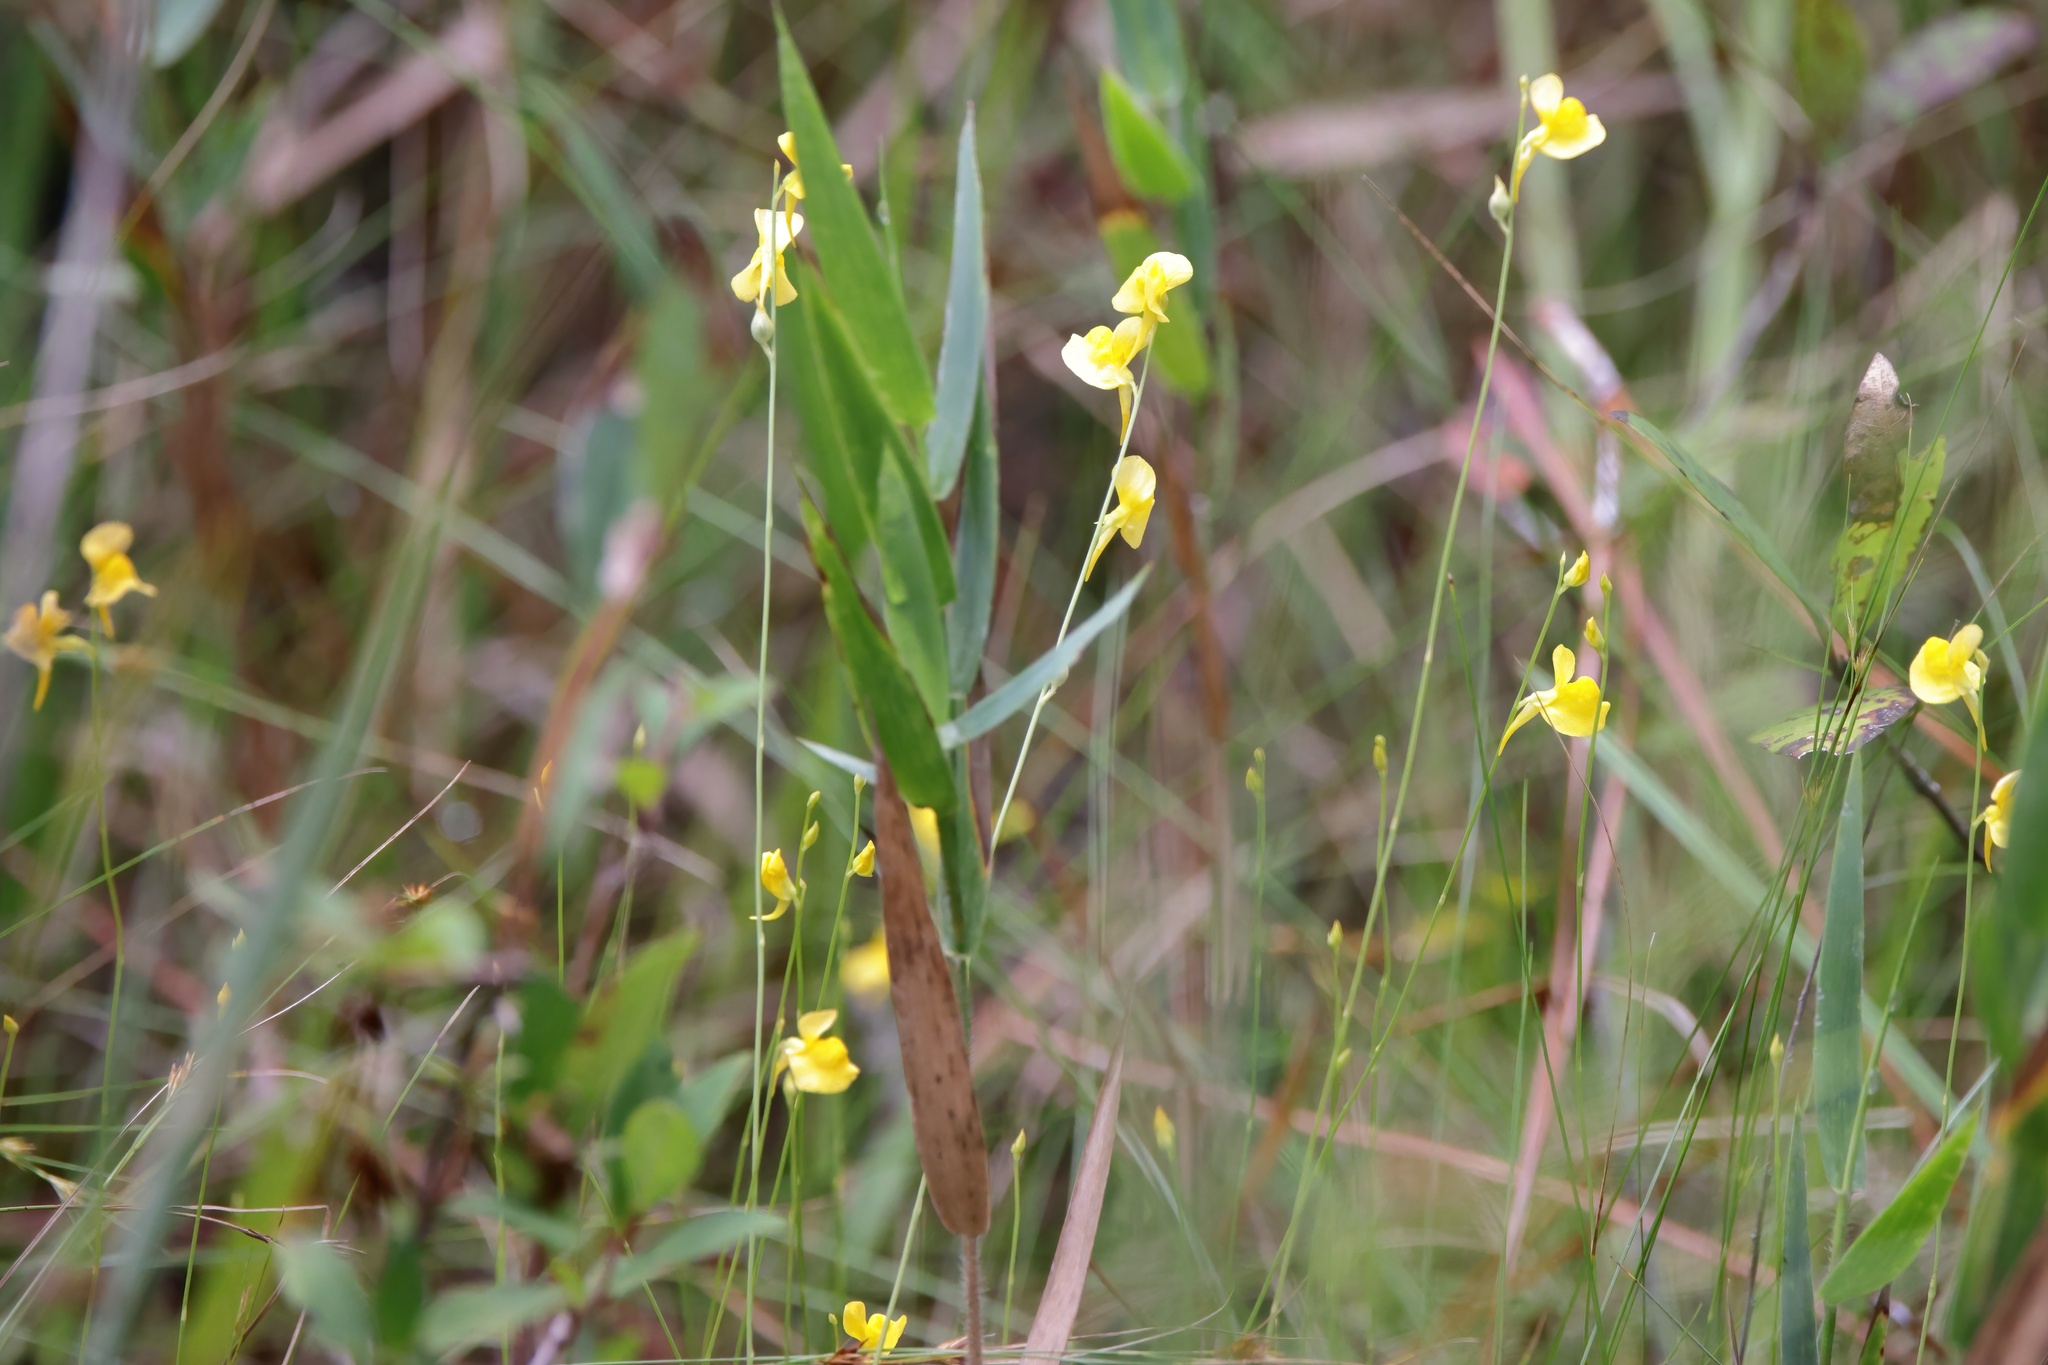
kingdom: Plantae
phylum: Tracheophyta
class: Magnoliopsida
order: Lamiales
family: Lentibulariaceae
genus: Utricularia
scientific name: Utricularia juncea
